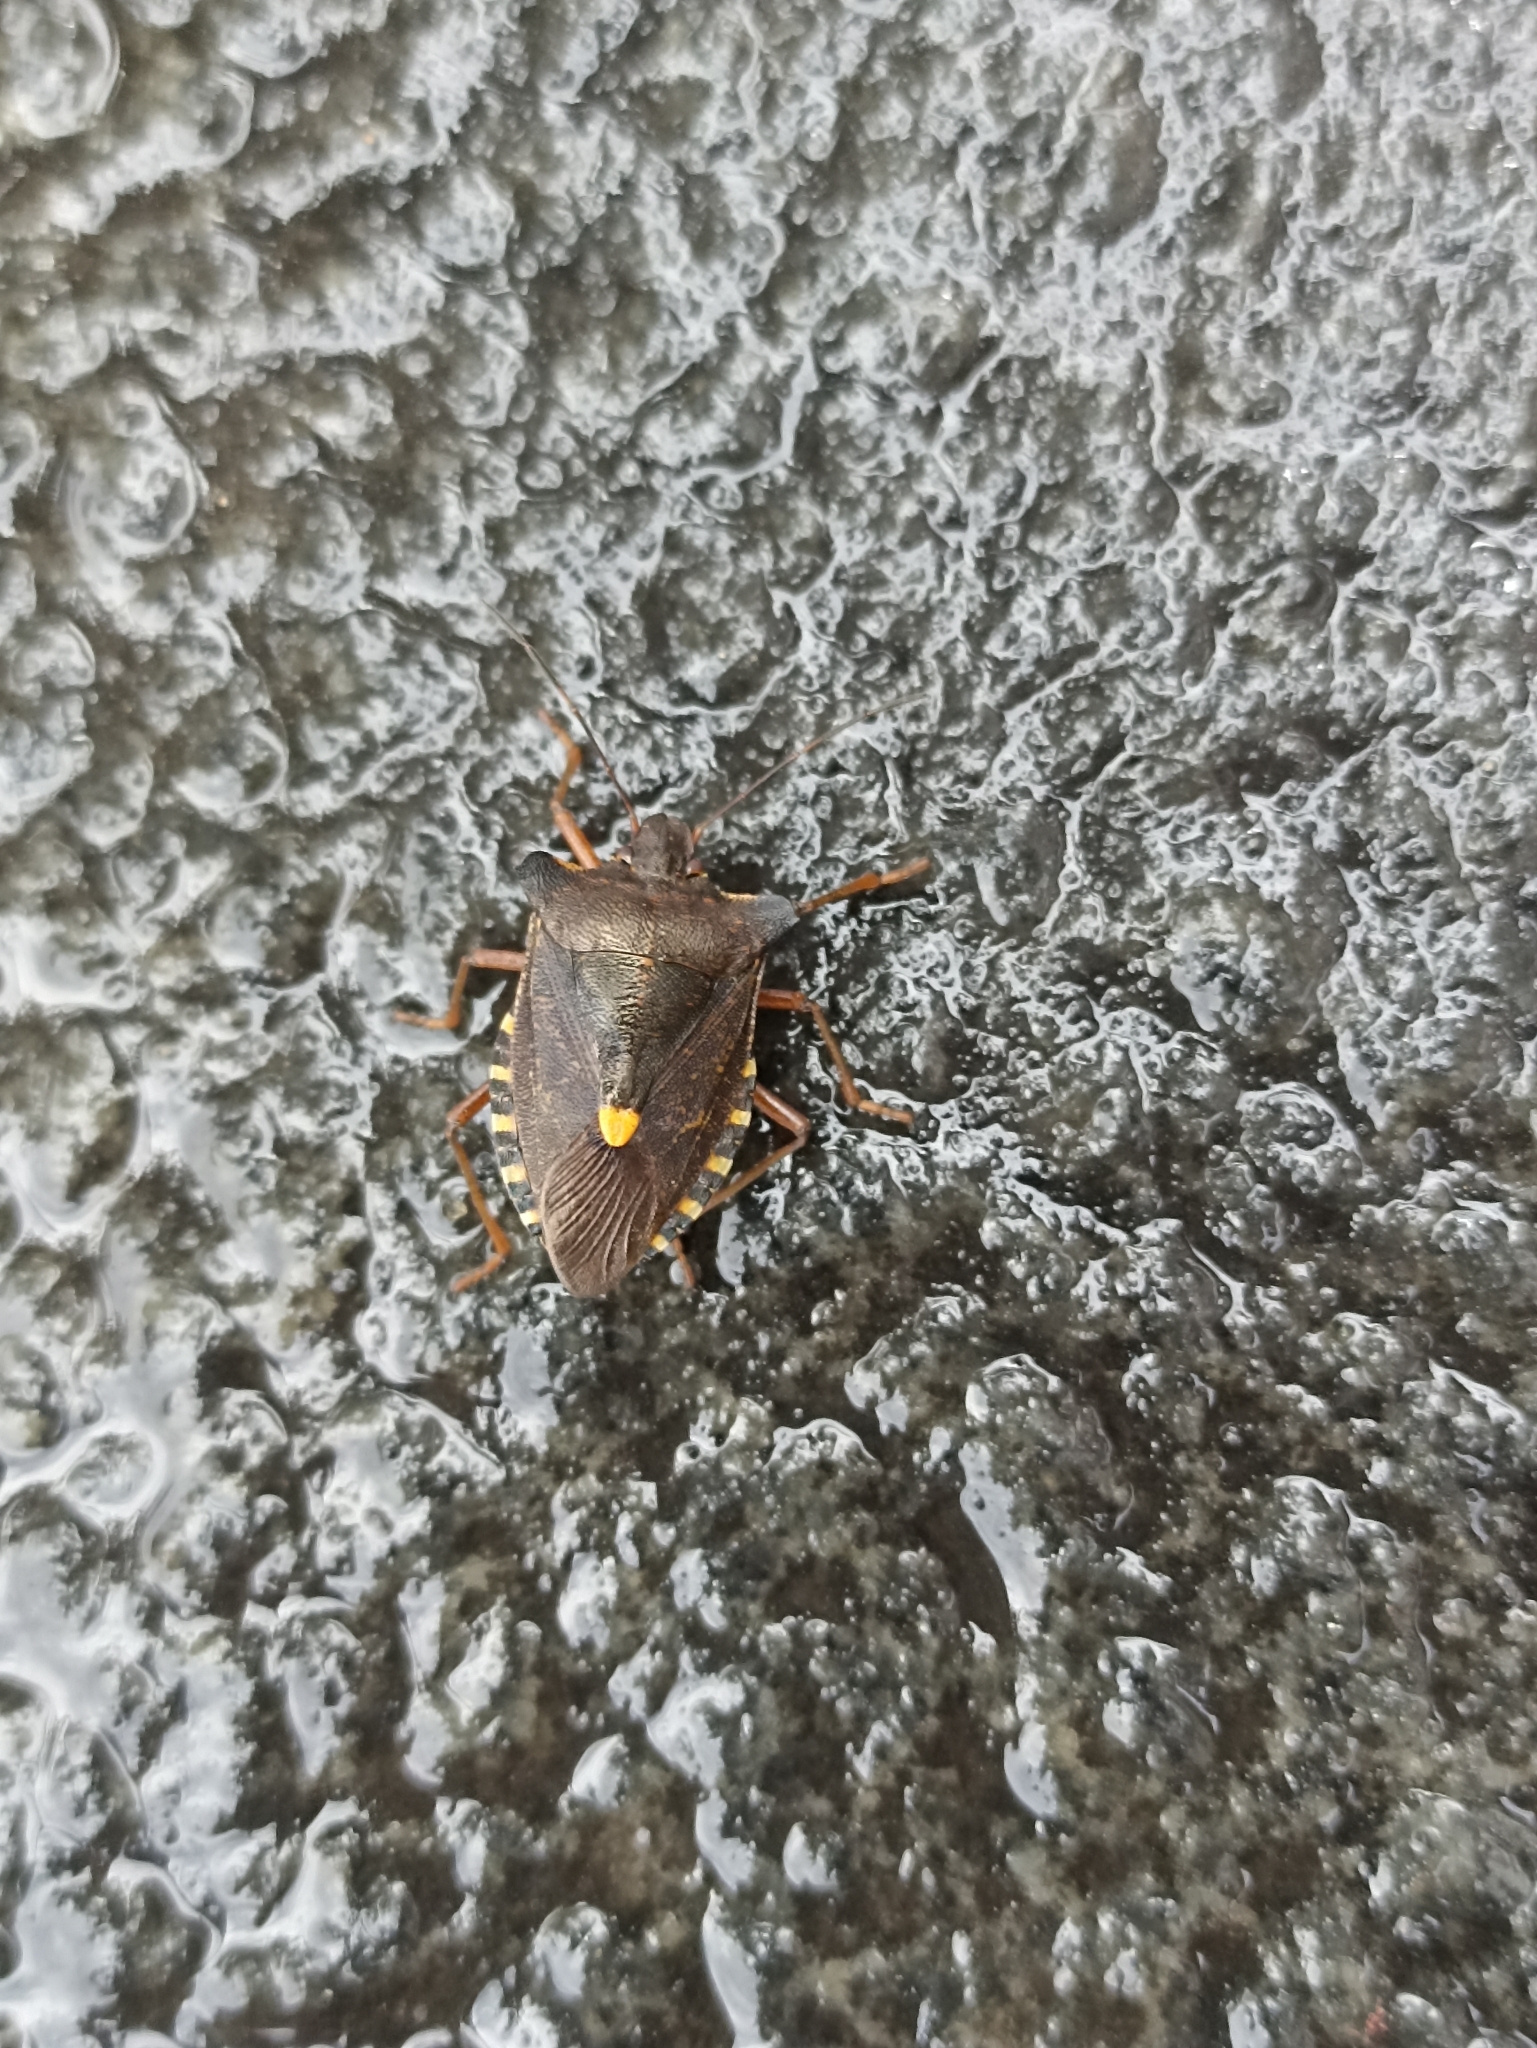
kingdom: Animalia
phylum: Arthropoda
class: Insecta
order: Hemiptera
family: Pentatomidae
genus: Pentatoma
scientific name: Pentatoma rufipes
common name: Forest bug
